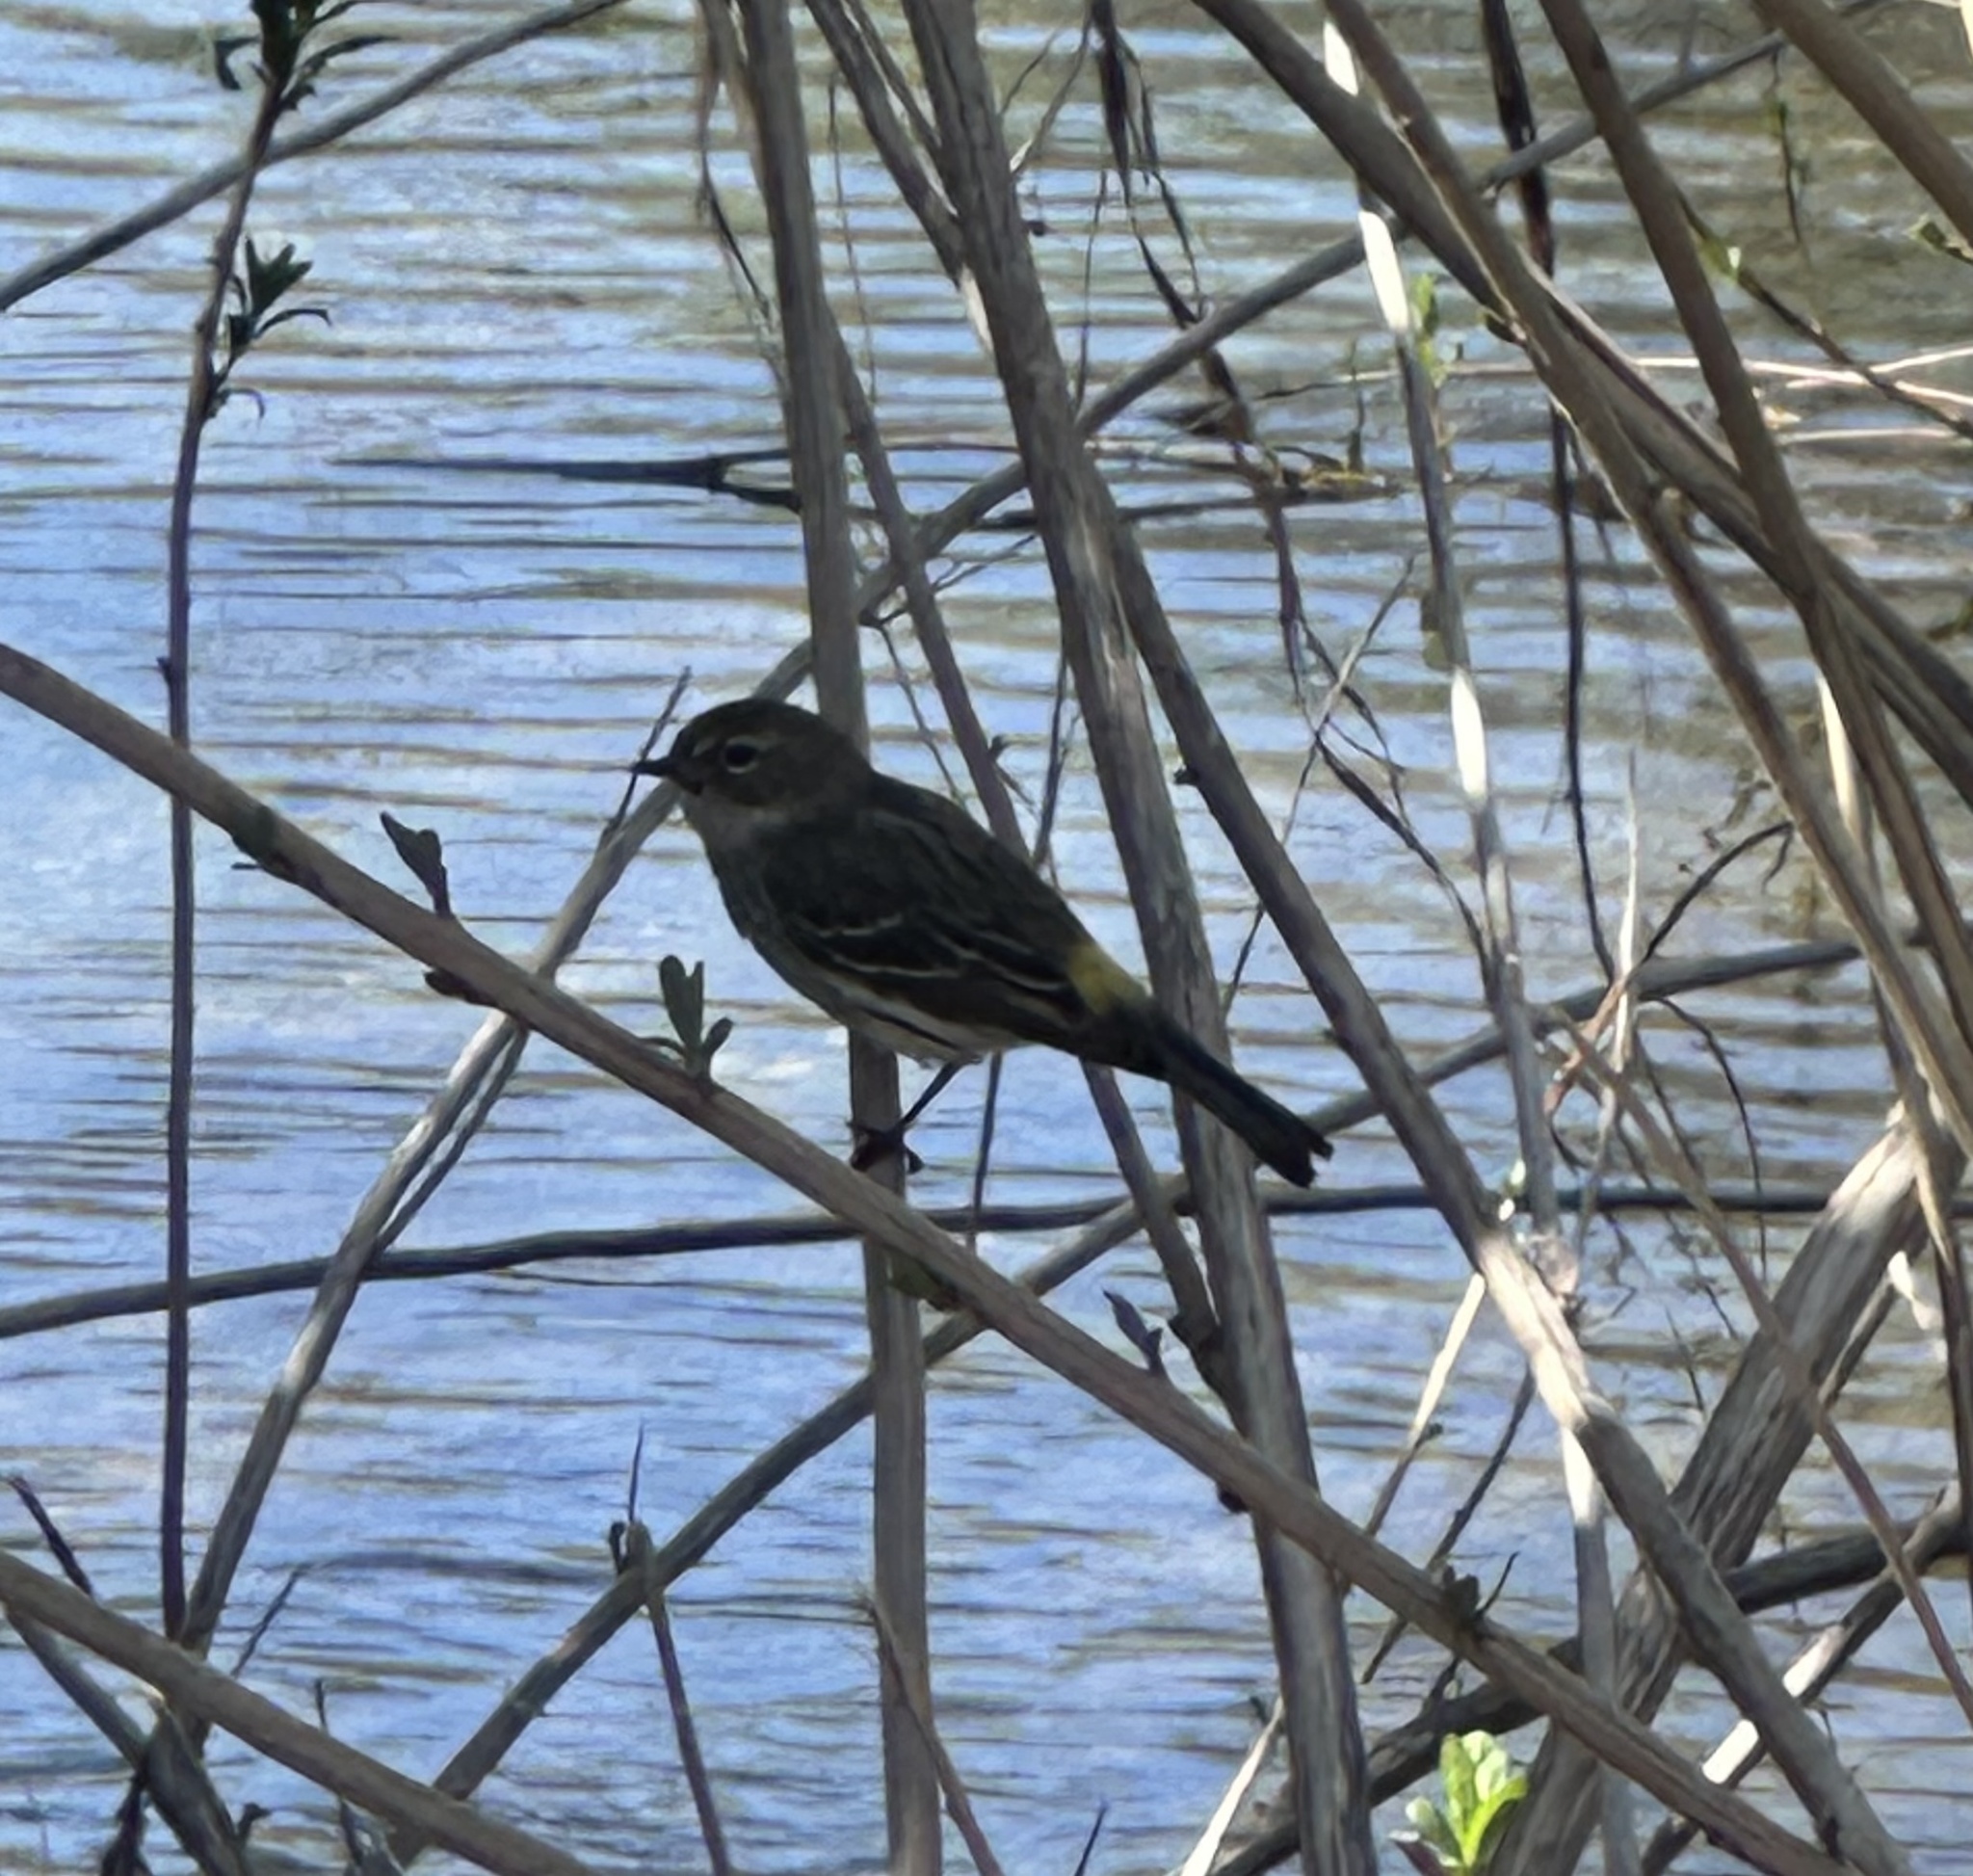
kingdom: Animalia
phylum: Chordata
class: Aves
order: Passeriformes
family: Parulidae
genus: Setophaga
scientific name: Setophaga coronata
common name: Myrtle warbler
